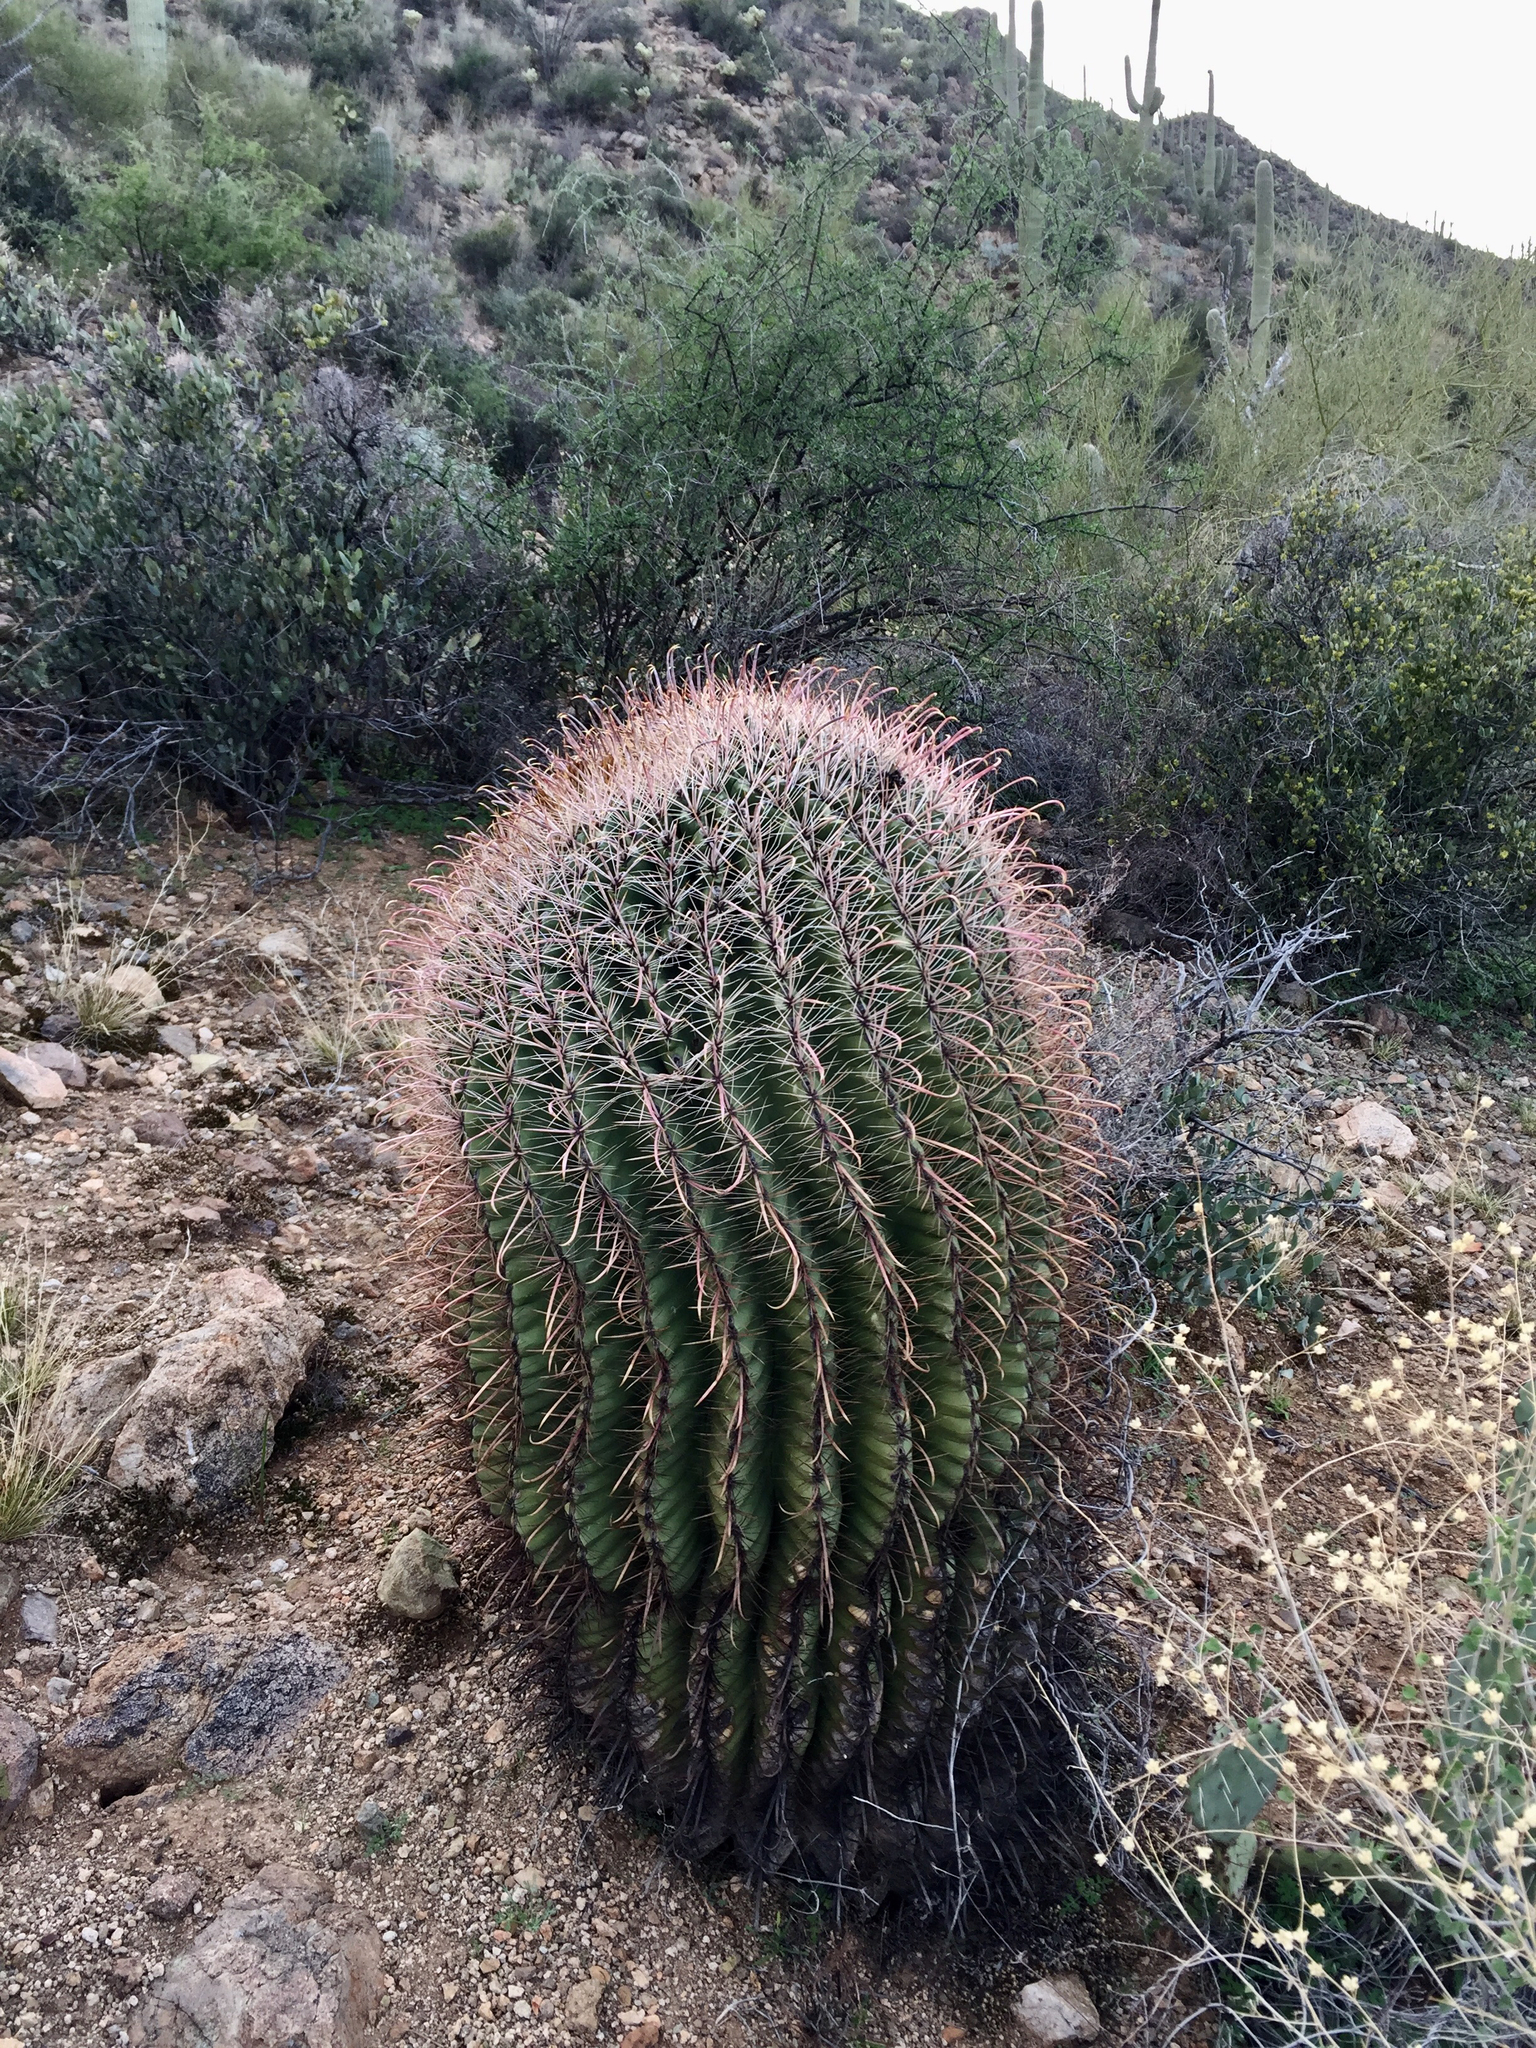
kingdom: Plantae
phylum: Tracheophyta
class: Magnoliopsida
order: Caryophyllales
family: Cactaceae
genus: Ferocactus
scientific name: Ferocactus wislizeni
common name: Candy barrel cactus
